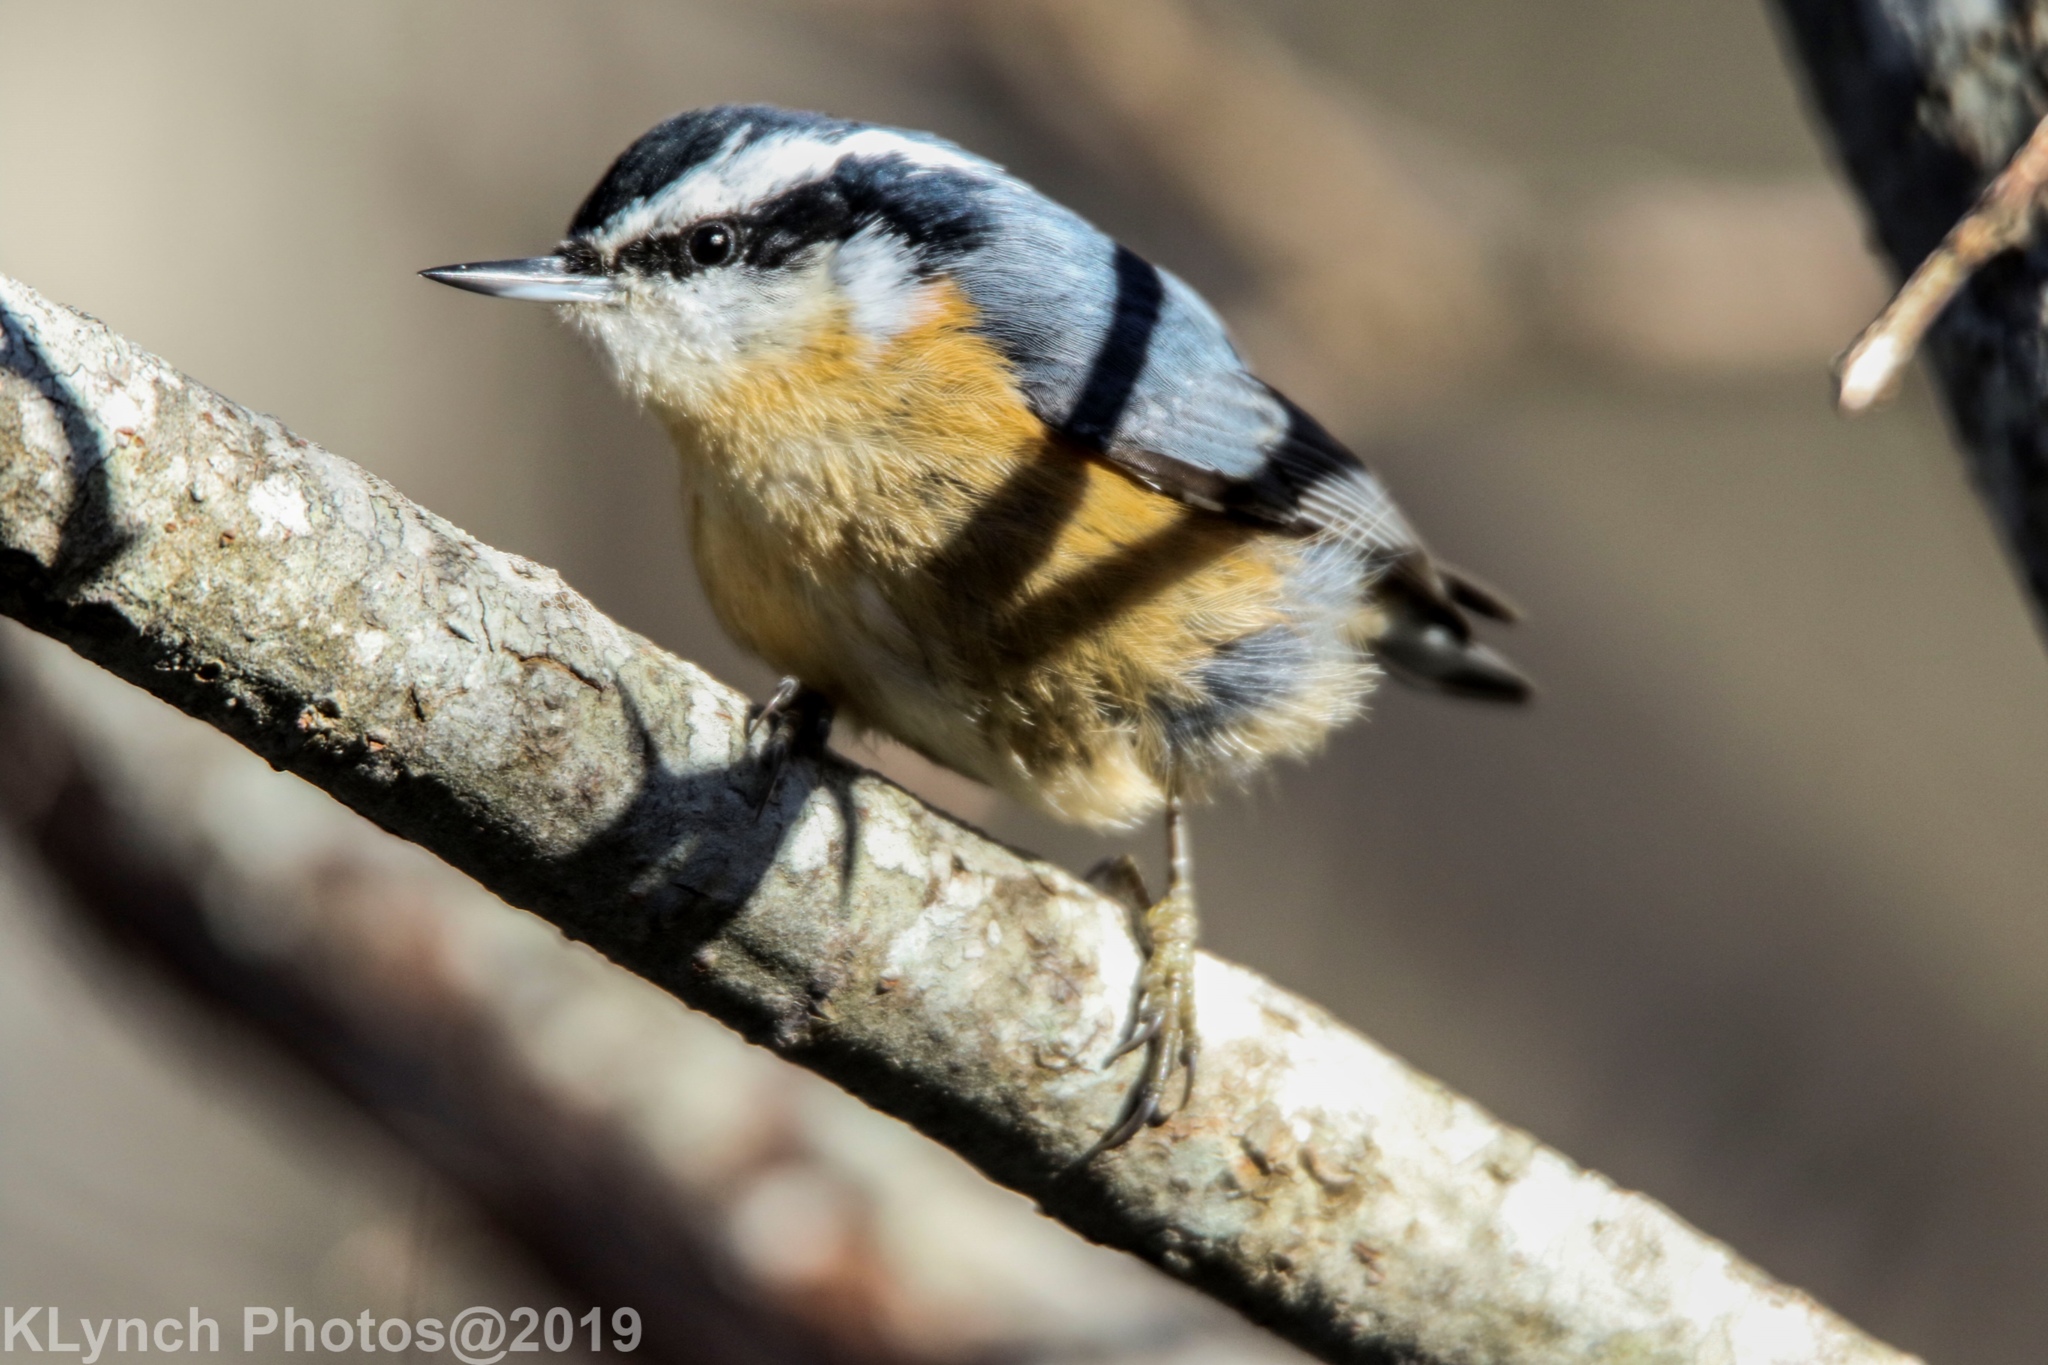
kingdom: Animalia
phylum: Chordata
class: Aves
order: Passeriformes
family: Sittidae
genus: Sitta
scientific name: Sitta canadensis
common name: Red-breasted nuthatch
